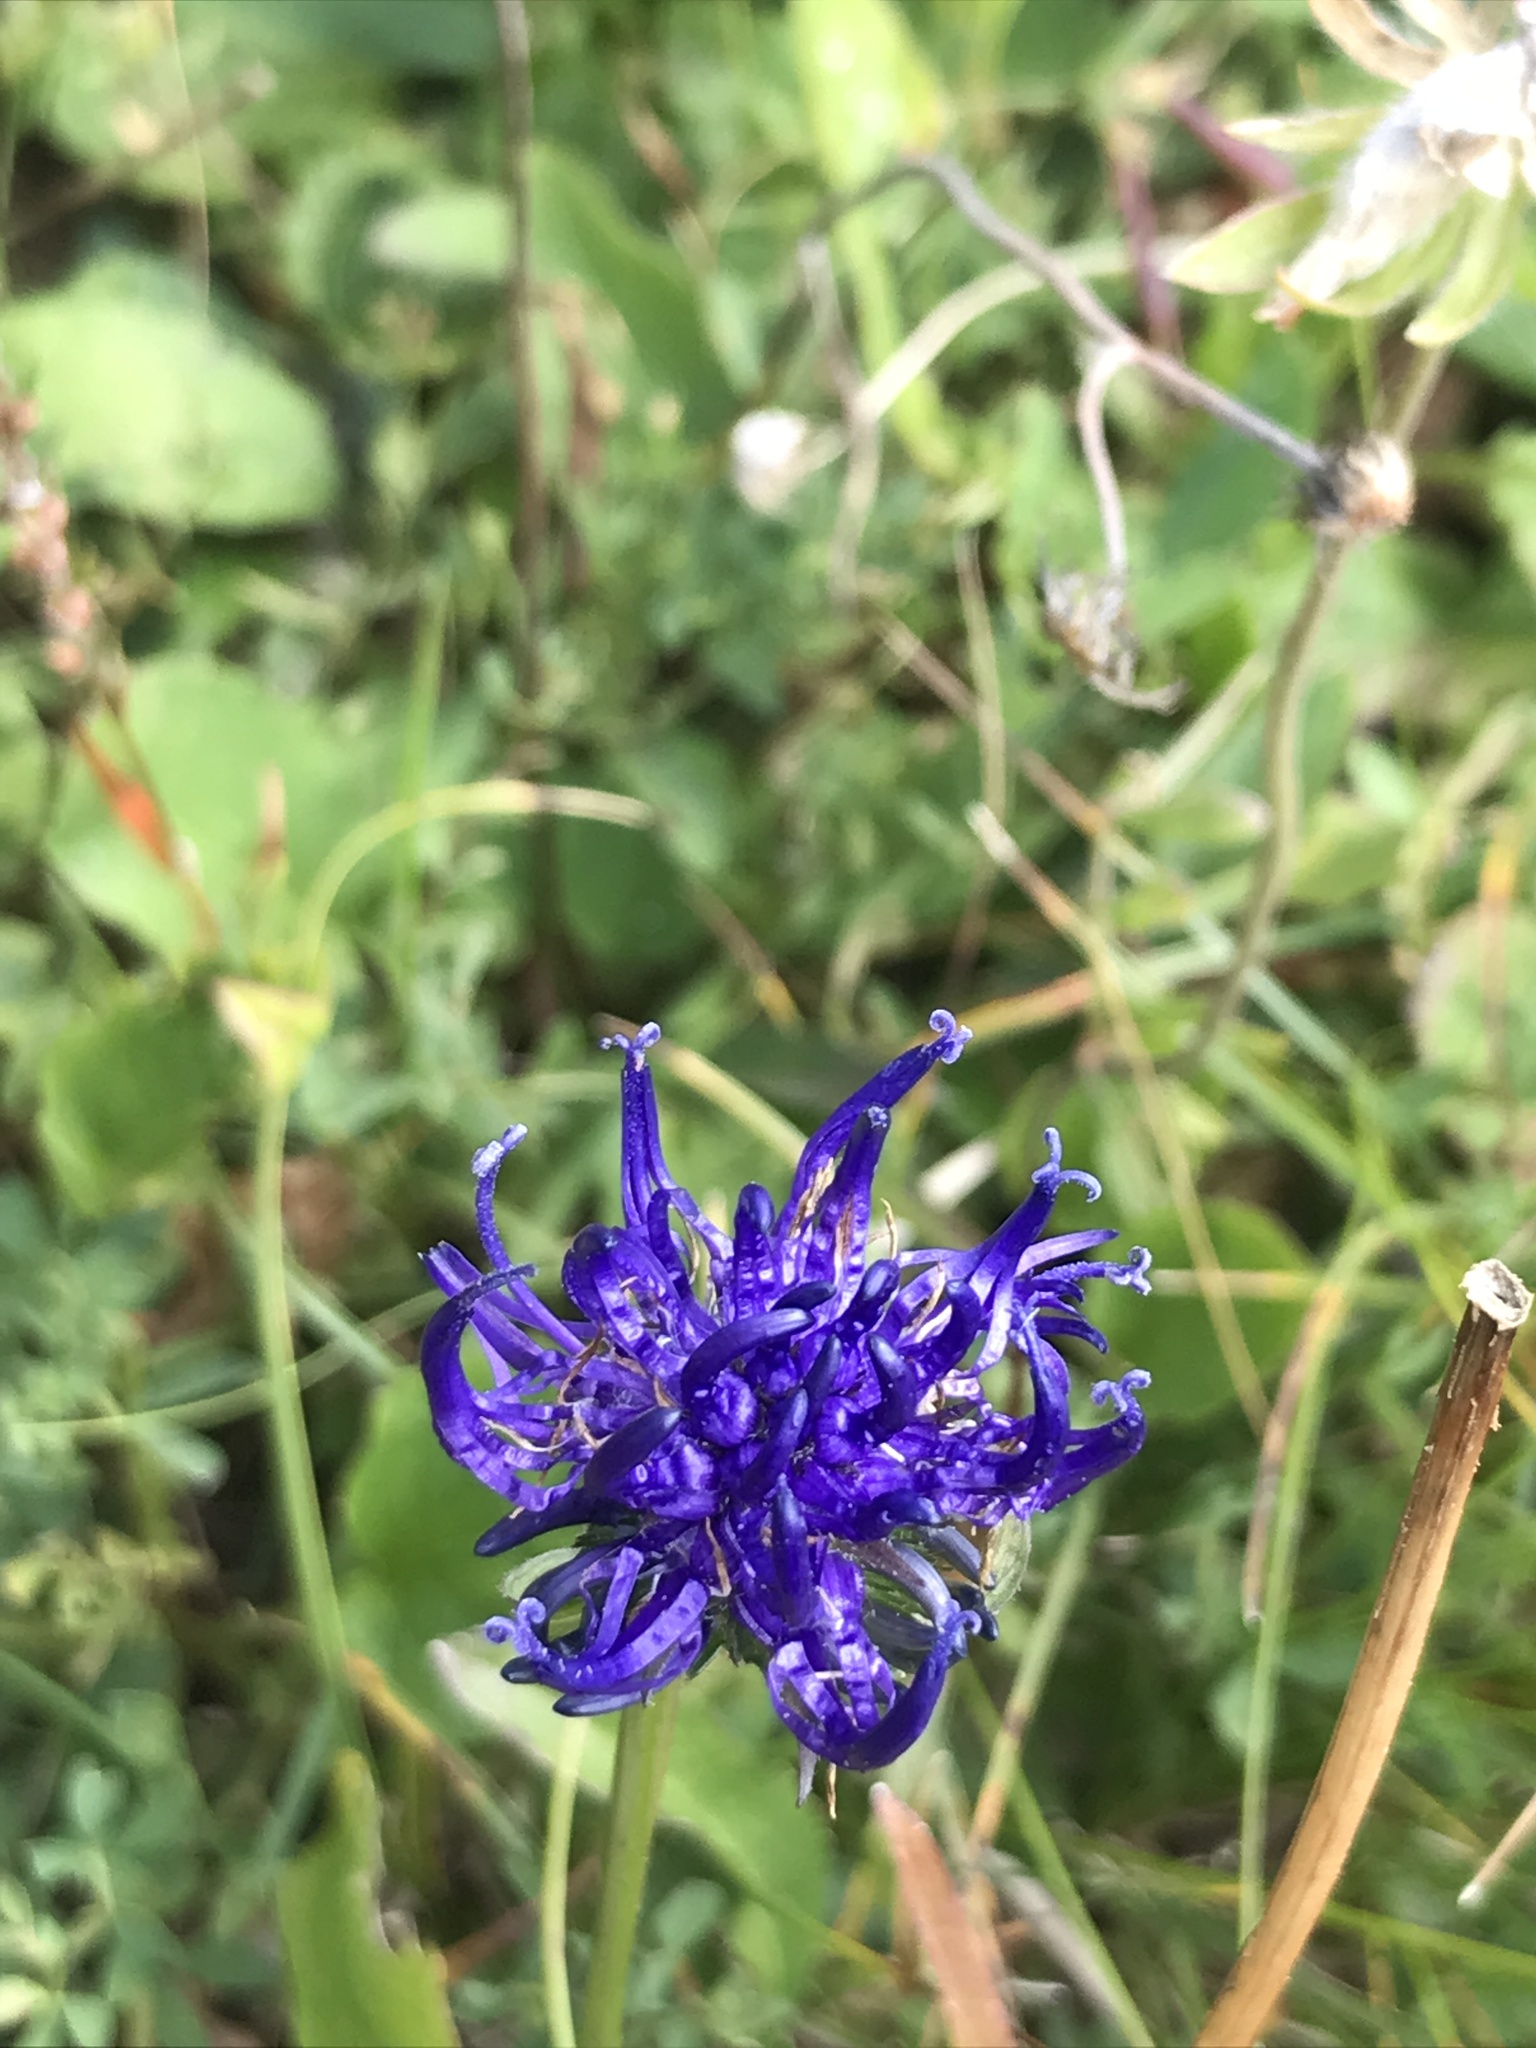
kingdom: Plantae
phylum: Tracheophyta
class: Magnoliopsida
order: Asterales
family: Campanulaceae
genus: Phyteuma
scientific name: Phyteuma orbiculare
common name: Round-headed rampion
